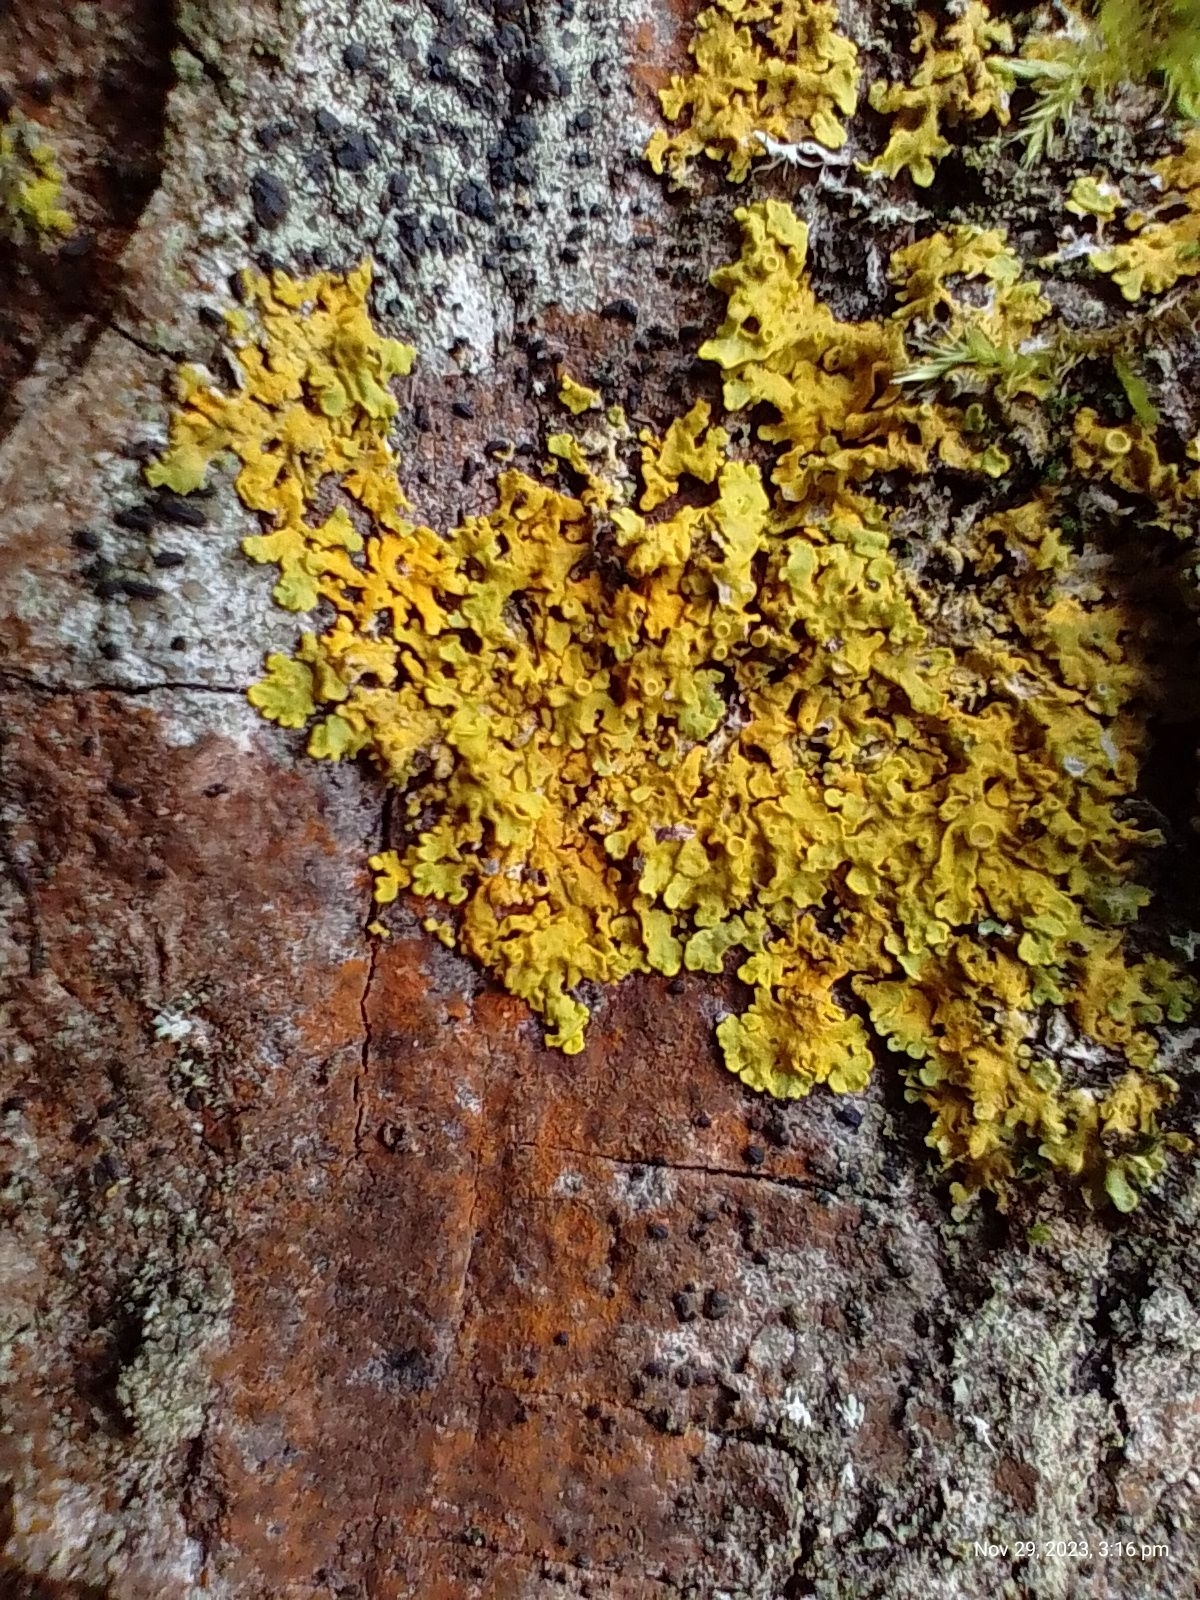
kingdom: Fungi
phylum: Ascomycota
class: Lecanoromycetes
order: Teloschistales
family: Teloschistaceae
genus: Xanthoria
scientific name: Xanthoria parietina
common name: Common orange lichen
